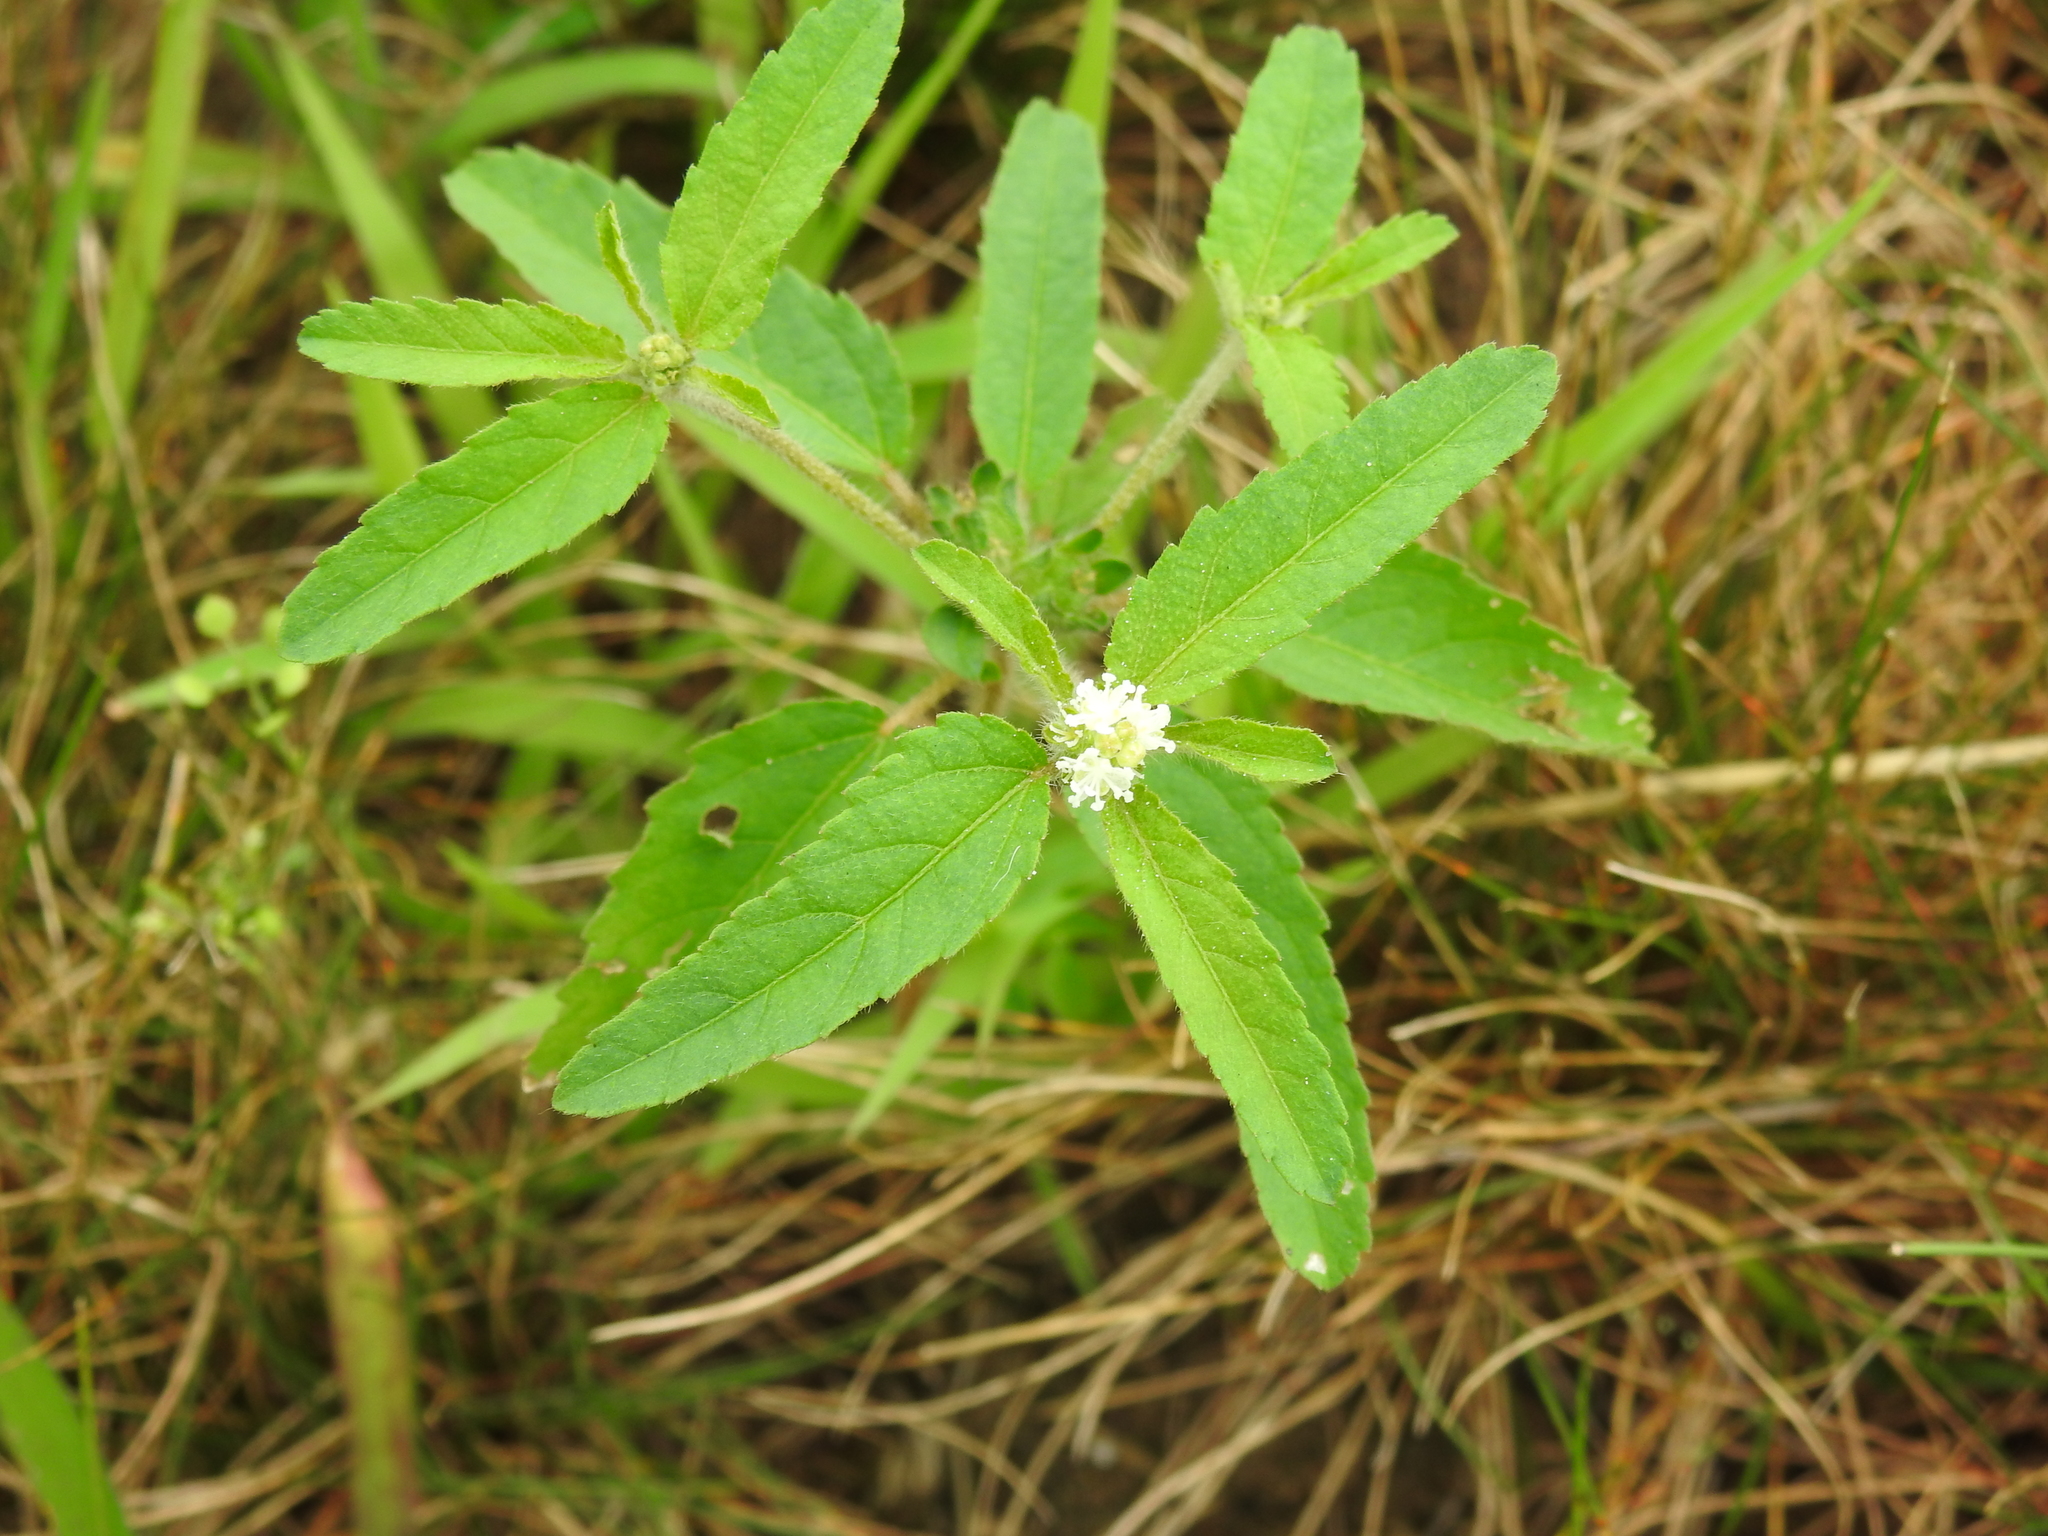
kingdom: Plantae
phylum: Tracheophyta
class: Magnoliopsida
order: Malpighiales
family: Euphorbiaceae
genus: Croton
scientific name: Croton glandulosus
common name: Tropic croton
